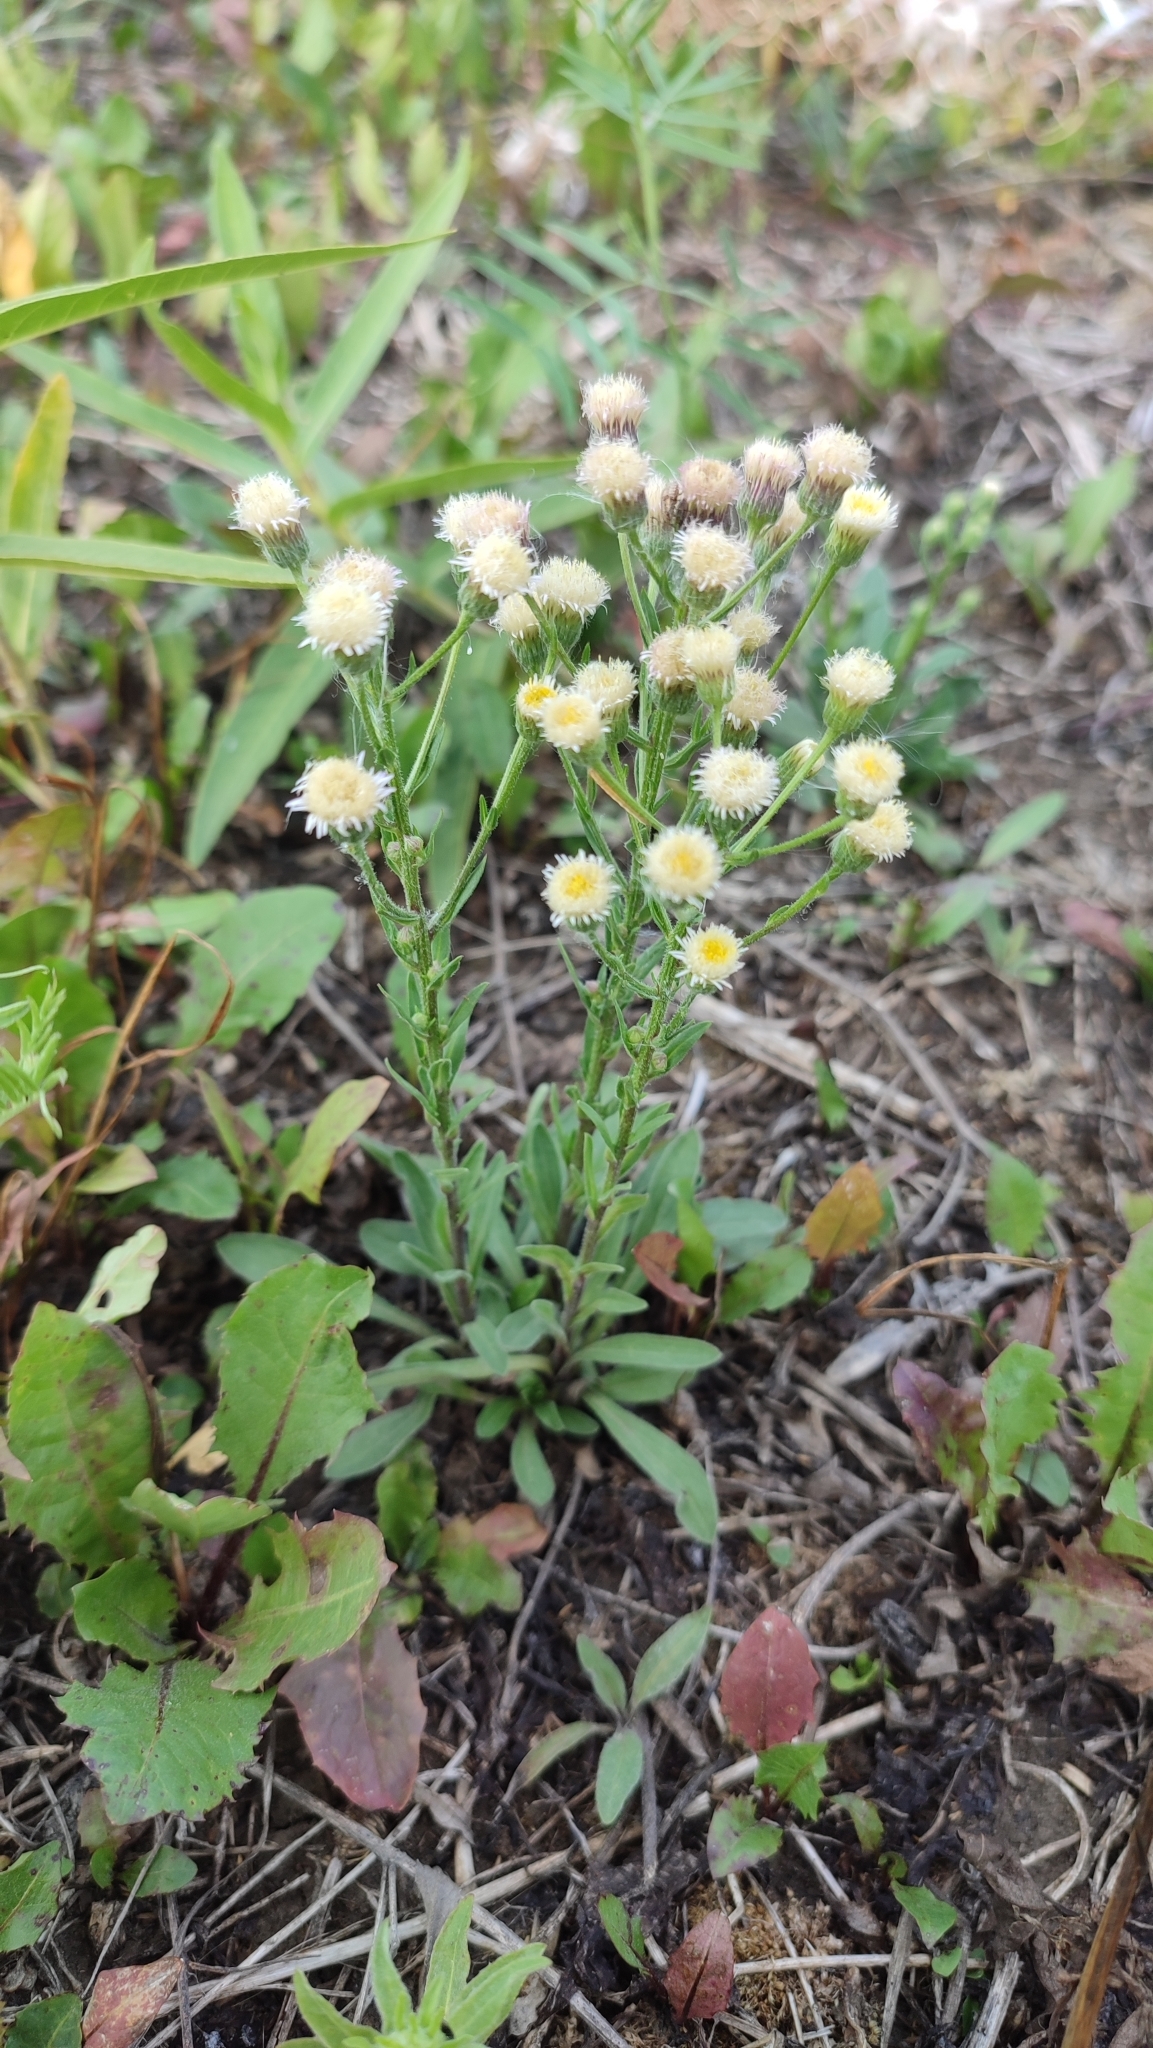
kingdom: Plantae
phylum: Tracheophyta
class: Magnoliopsida
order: Asterales
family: Asteraceae
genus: Erigeron
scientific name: Erigeron acris
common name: Blue fleabane
